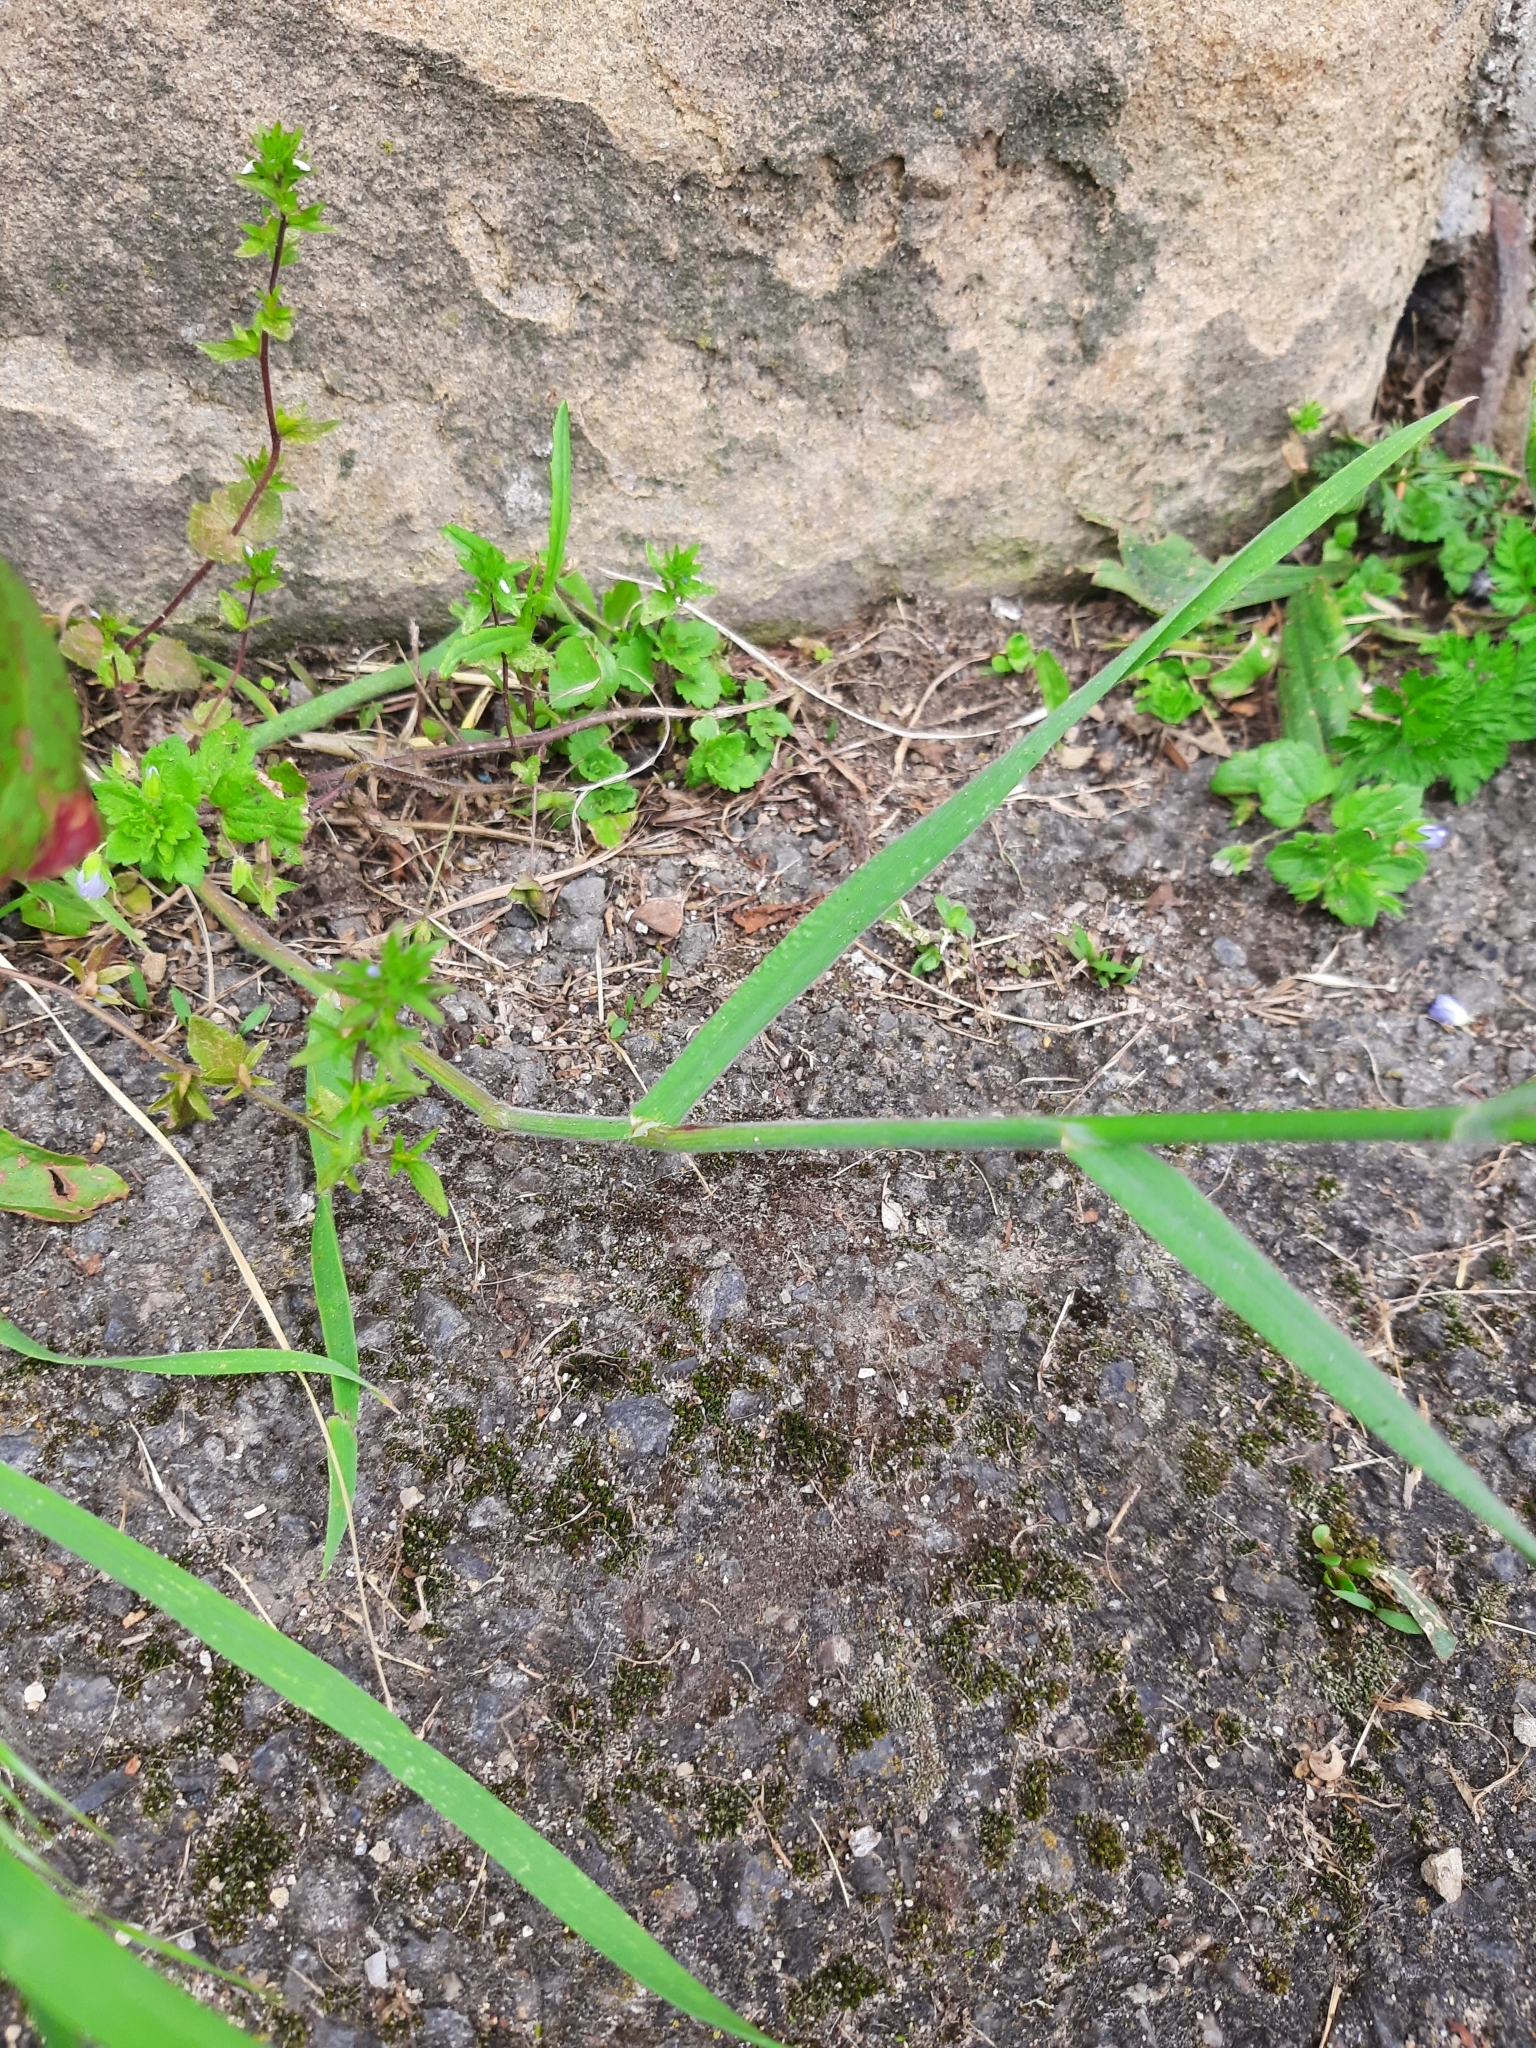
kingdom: Plantae
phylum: Tracheophyta
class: Liliopsida
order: Poales
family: Poaceae
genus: Bromus
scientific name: Bromus tectorum
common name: Cheatgrass
